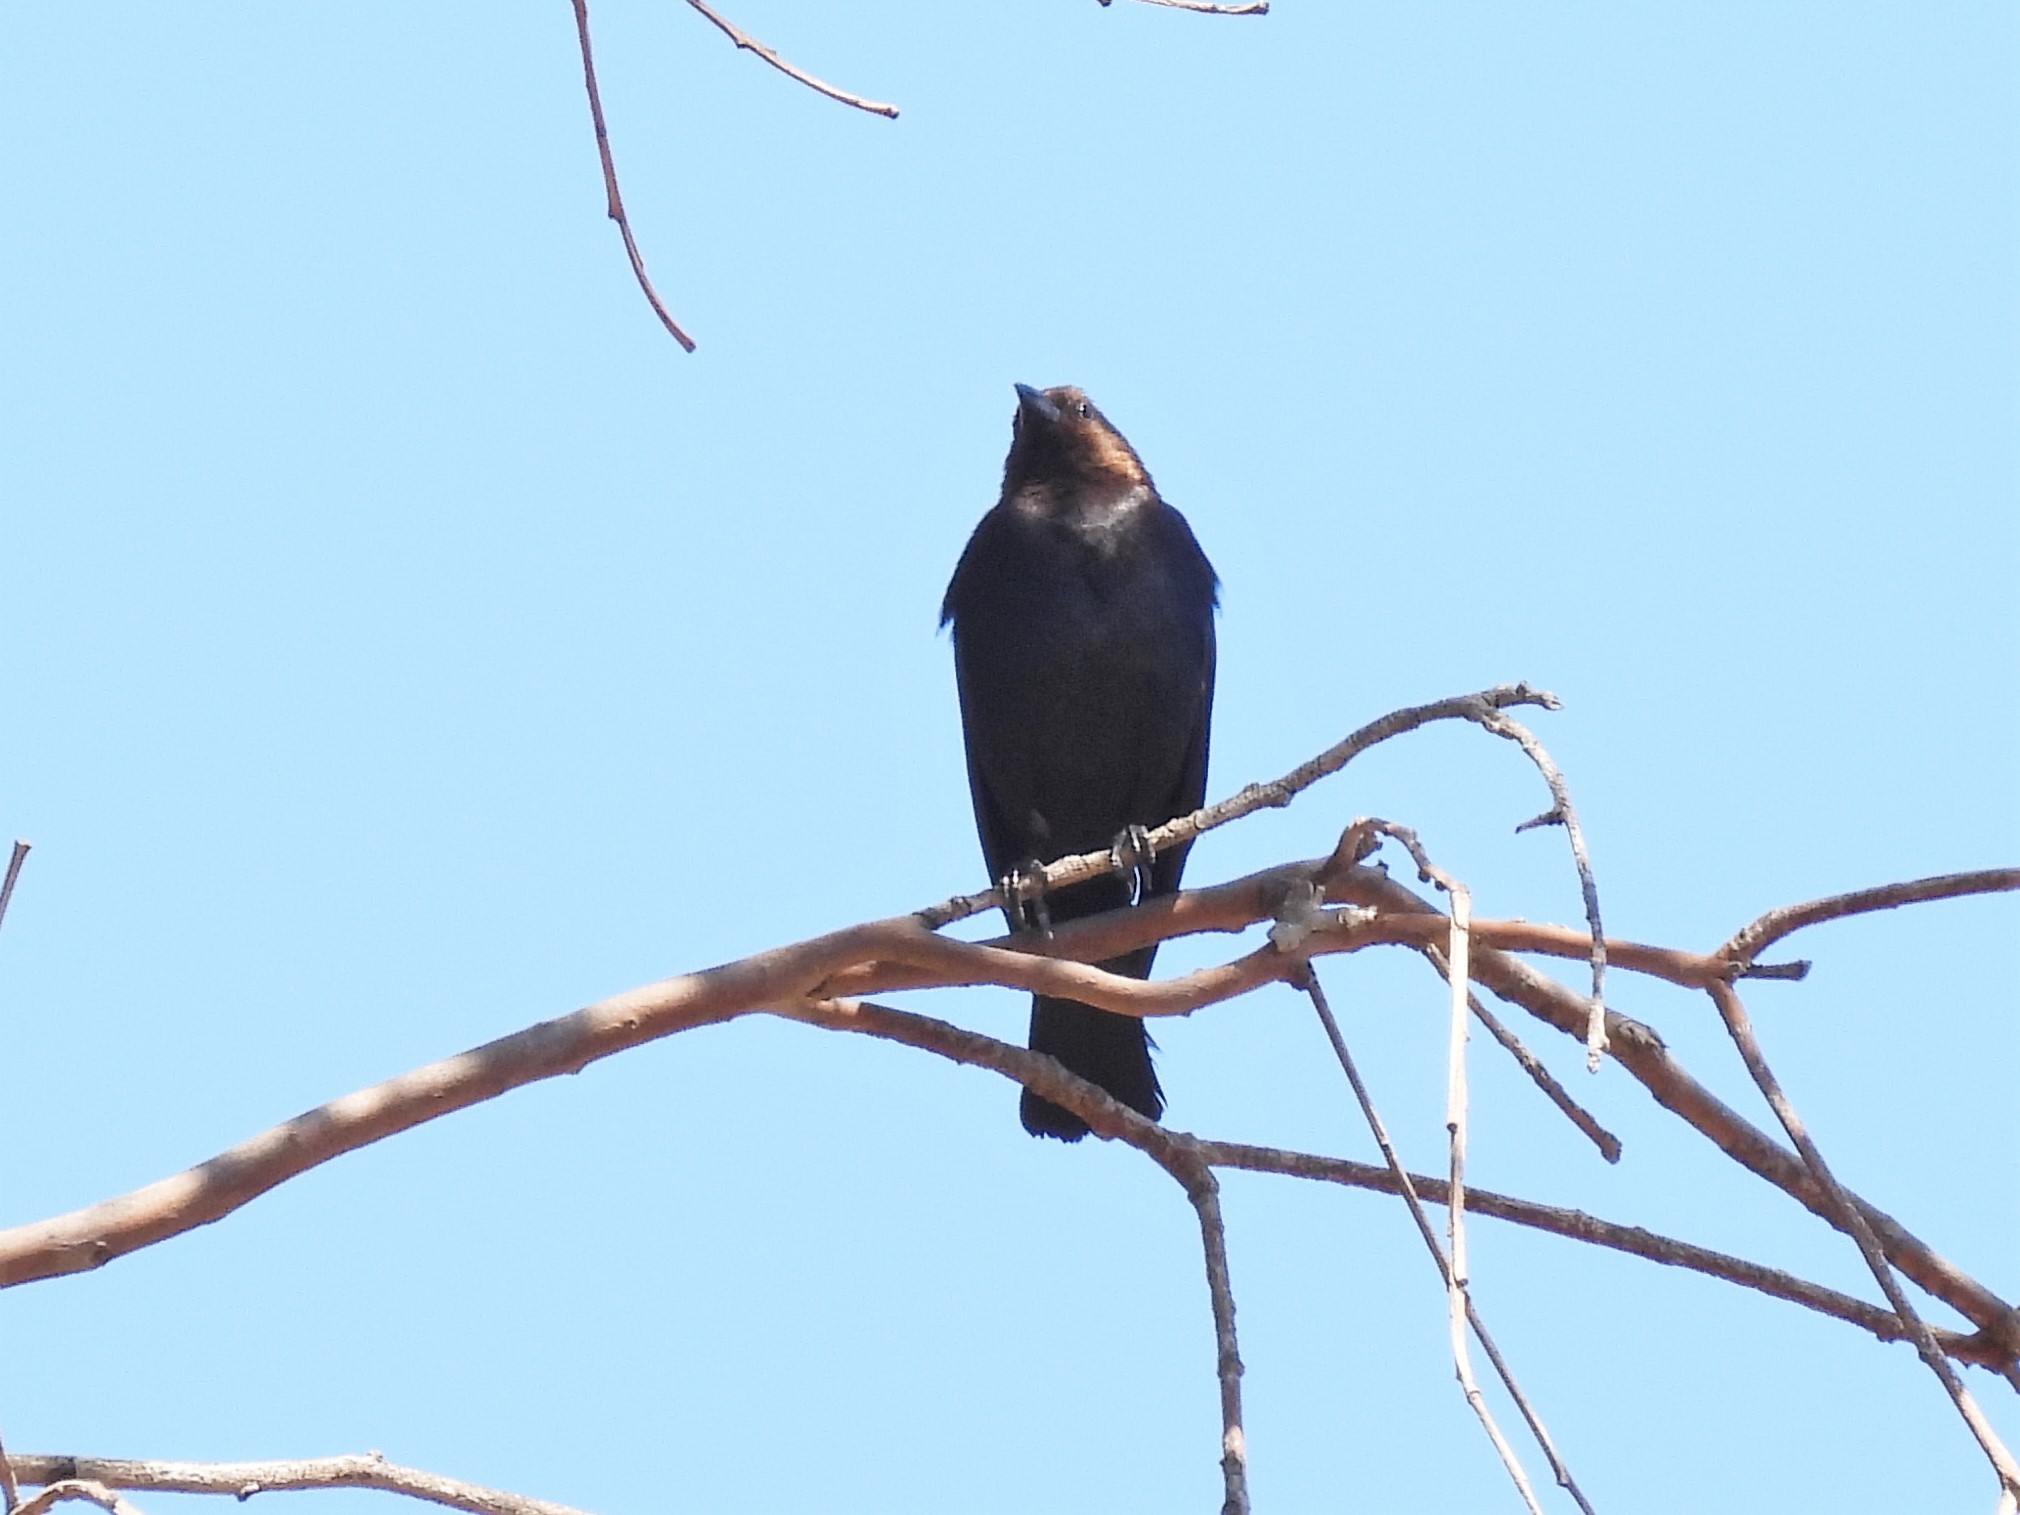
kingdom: Animalia
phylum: Chordata
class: Aves
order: Passeriformes
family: Icteridae
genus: Molothrus
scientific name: Molothrus ater
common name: Brown-headed cowbird
